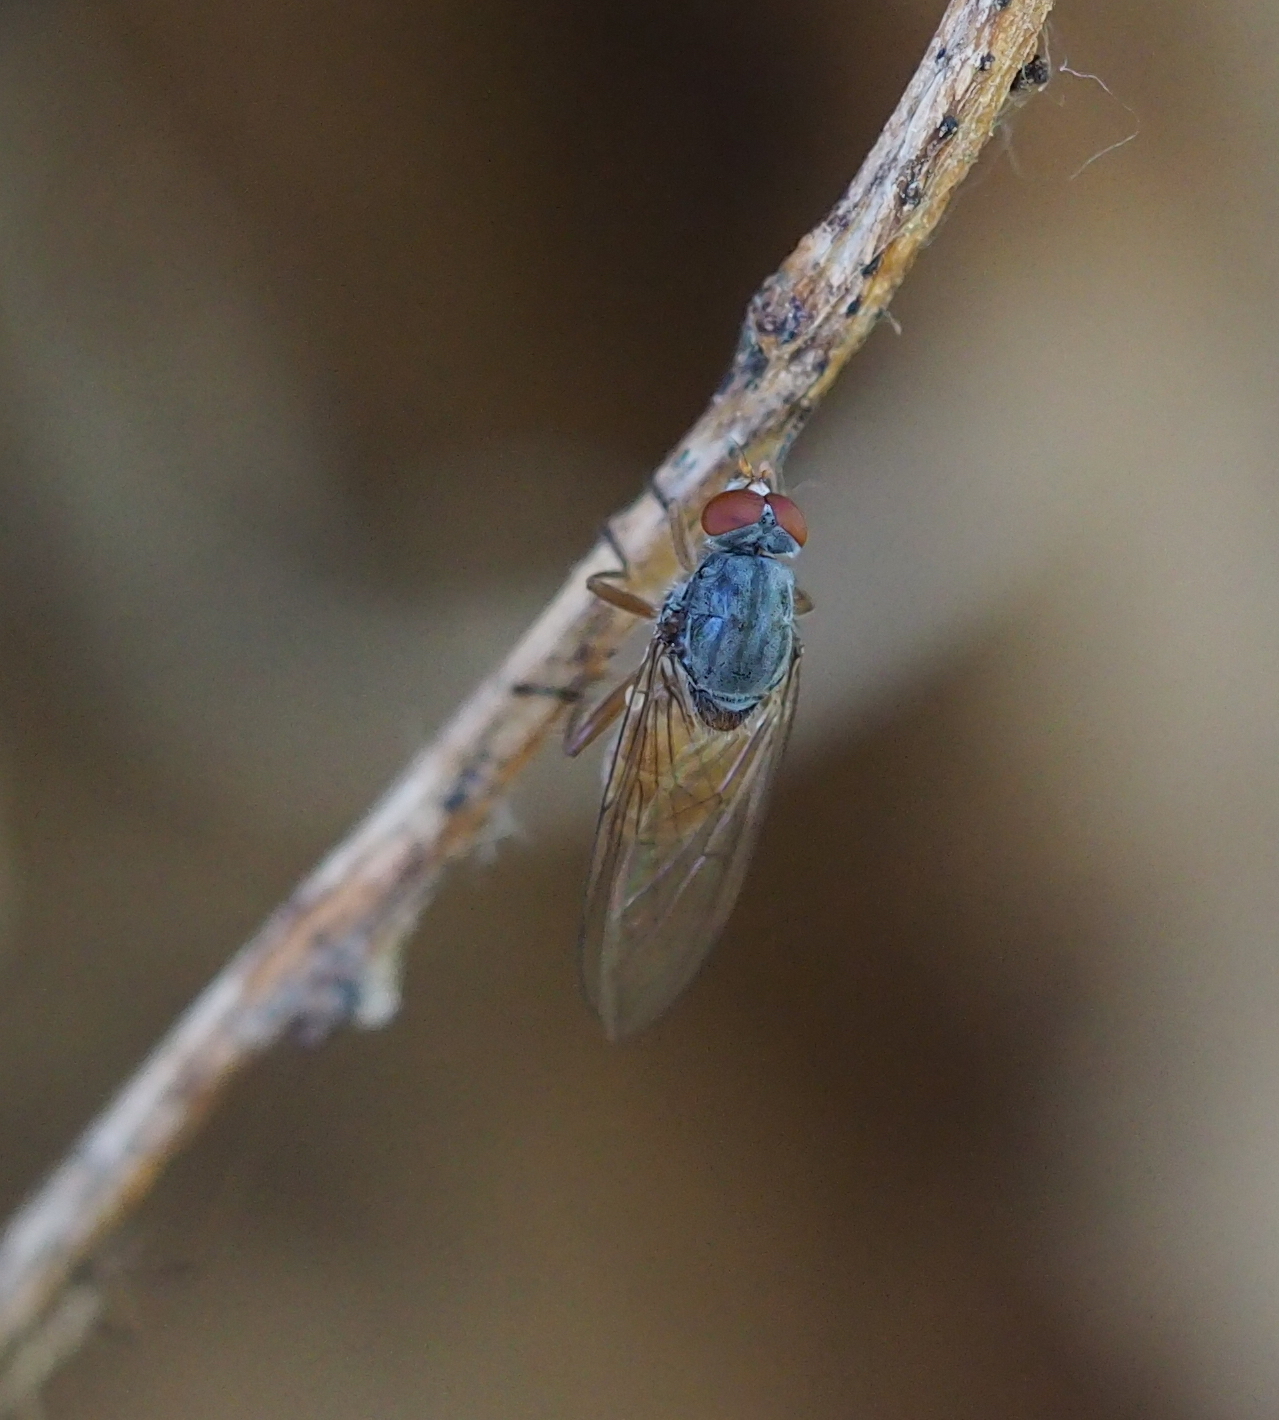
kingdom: Animalia
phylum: Arthropoda
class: Insecta
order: Diptera
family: Syrphidae
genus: Brachyopa
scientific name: Brachyopa insensilis
